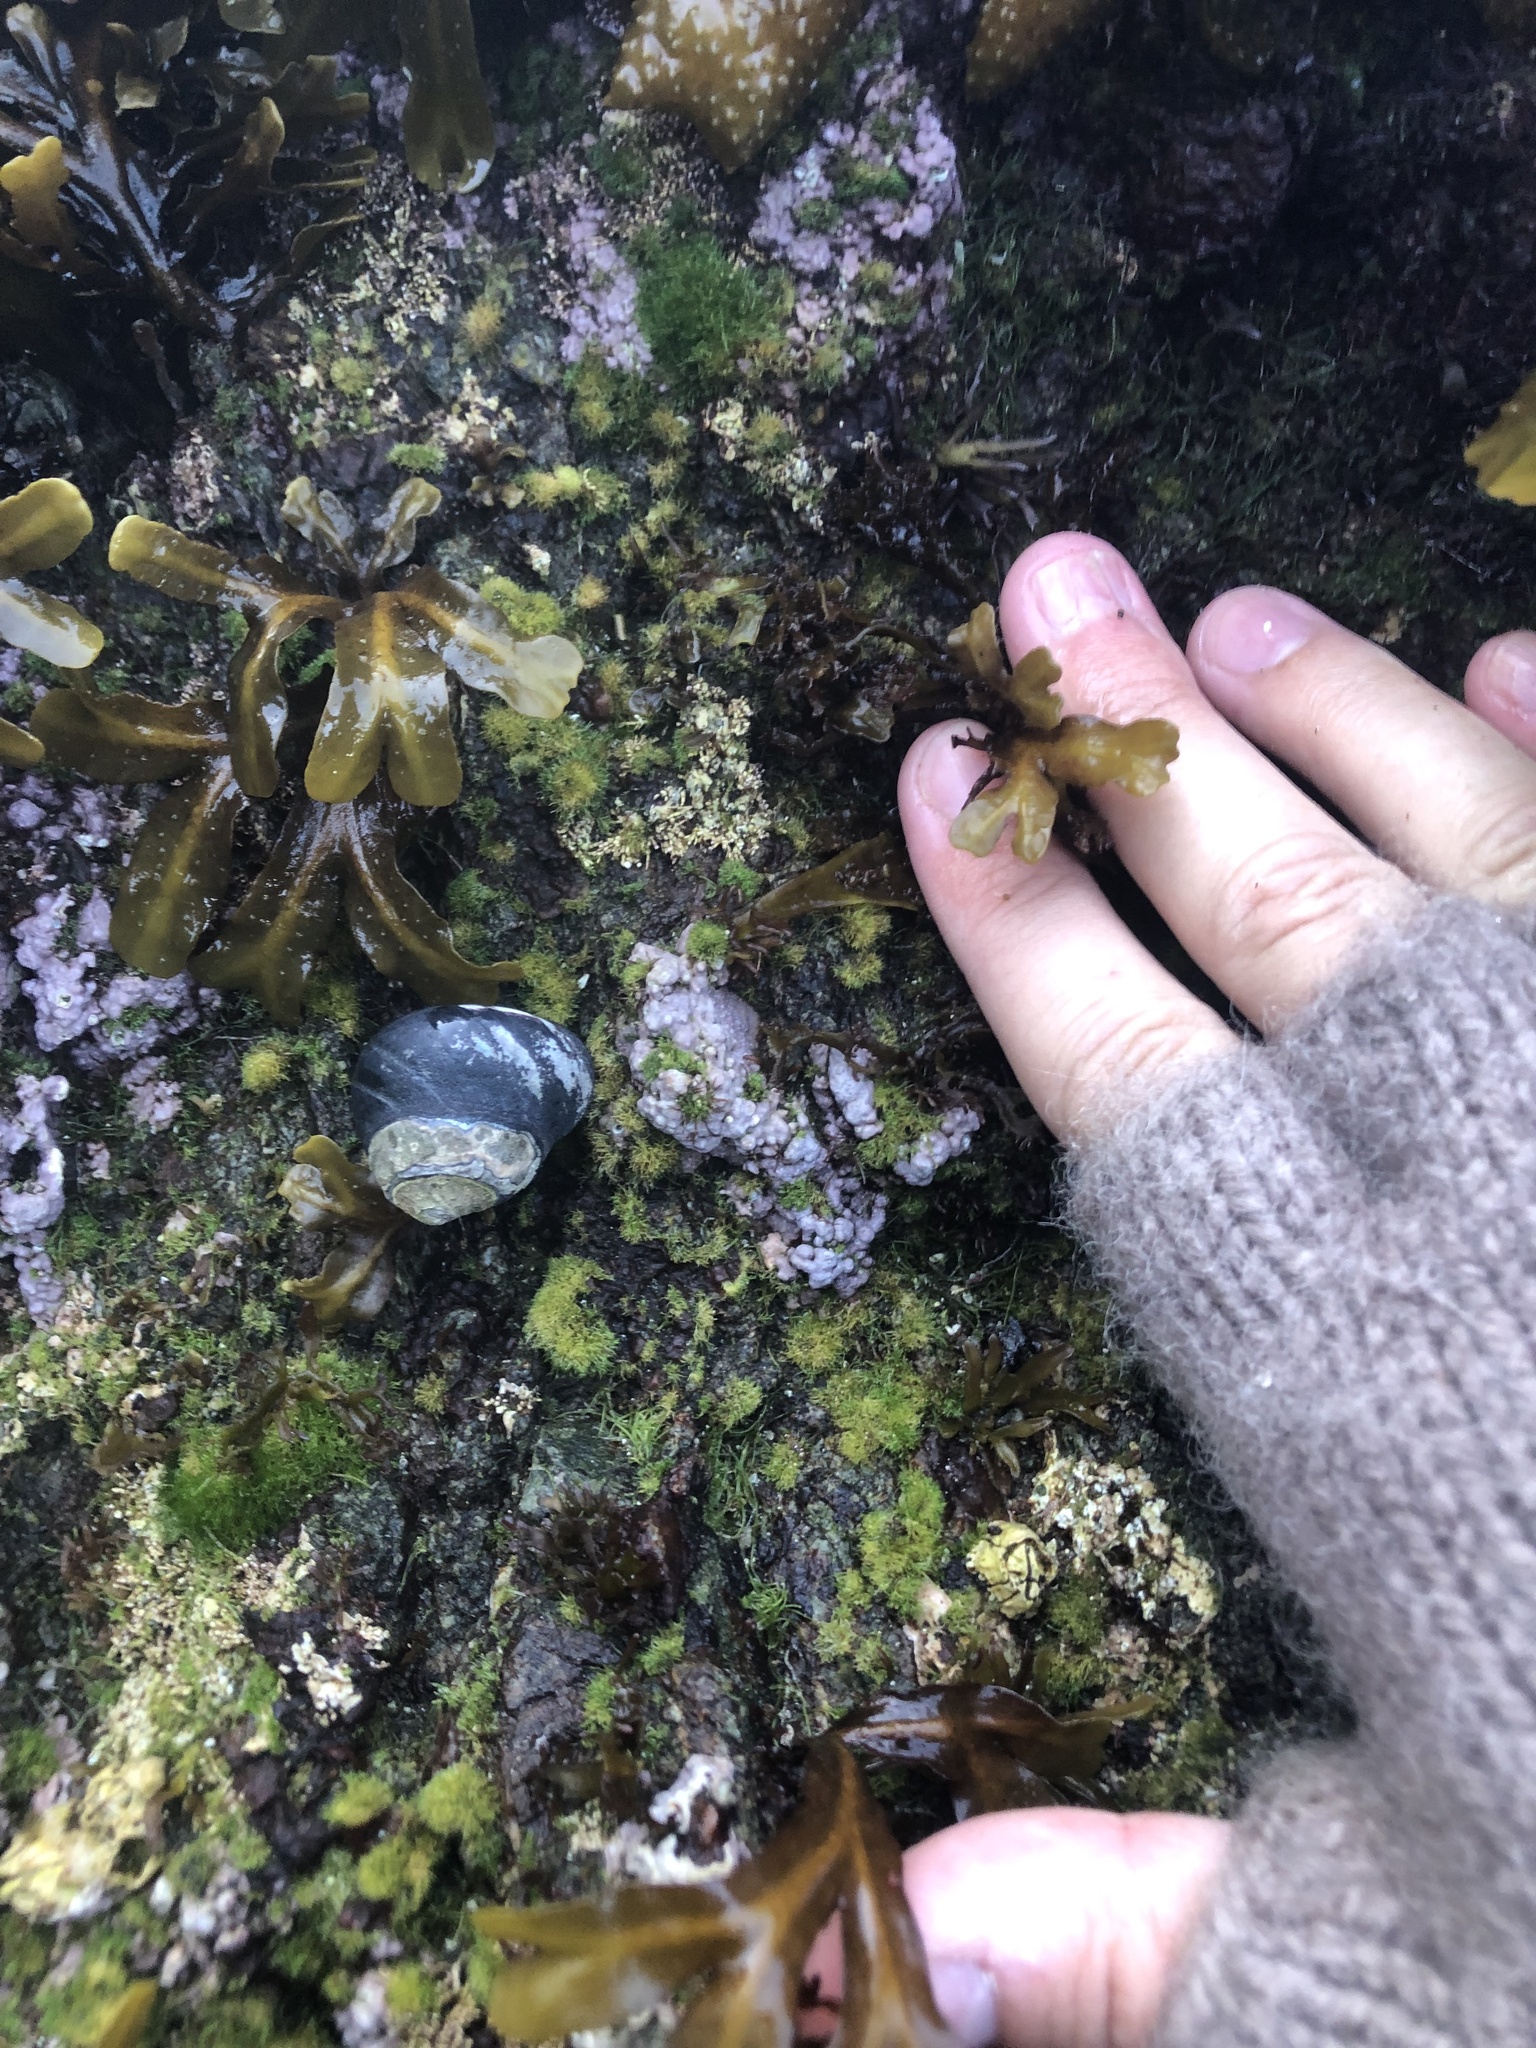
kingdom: Plantae
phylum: Rhodophyta
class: Florideophyceae
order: Corallinales
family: Corallinaceae
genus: Chamberlainium
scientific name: Chamberlainium tumidum
